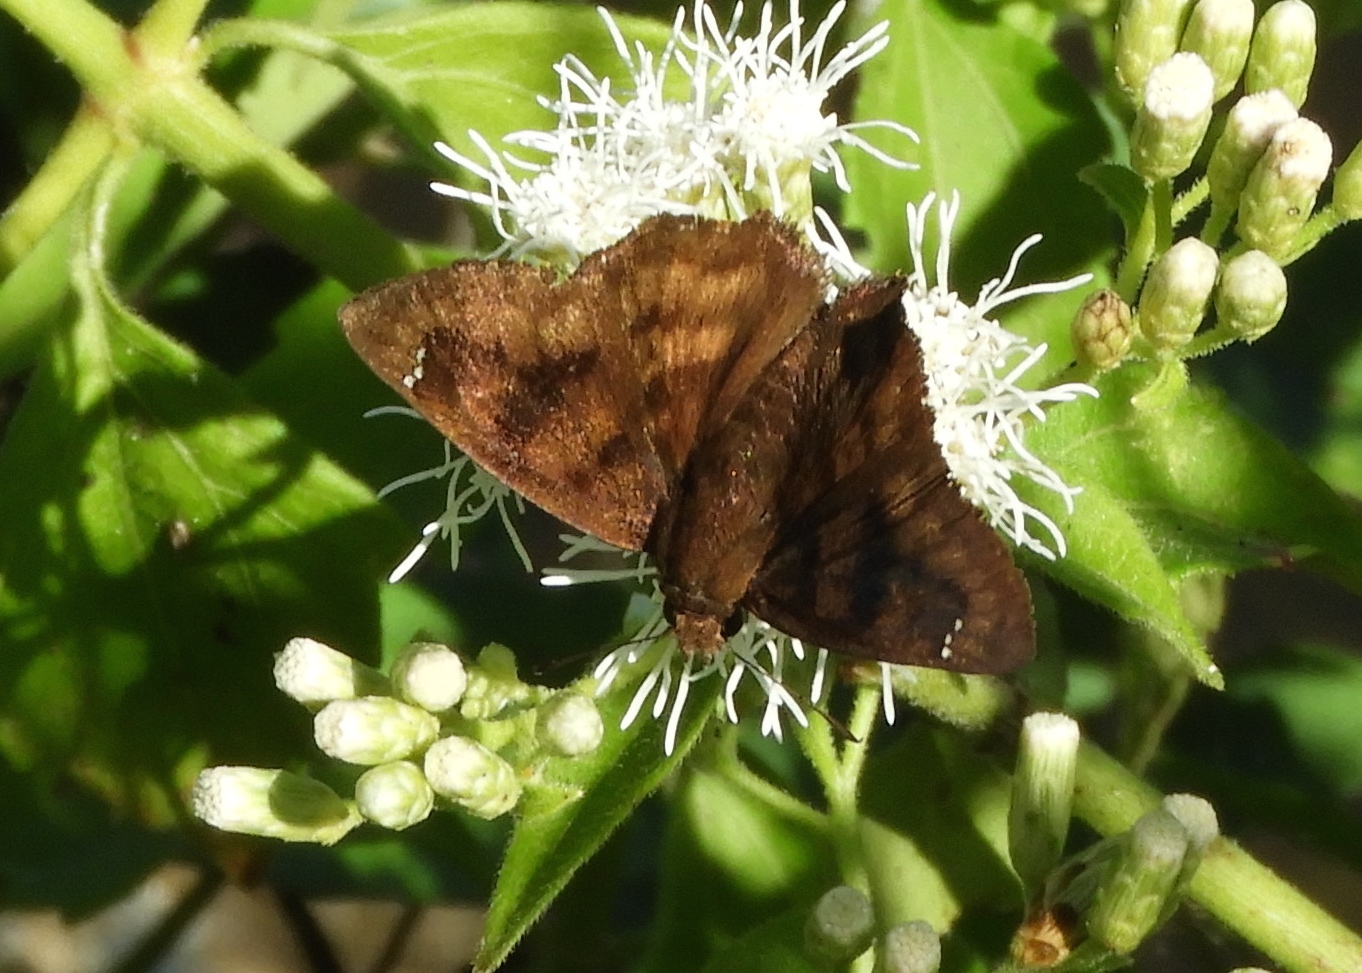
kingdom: Animalia
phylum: Arthropoda
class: Insecta
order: Lepidoptera
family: Hesperiidae
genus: Nisoniades
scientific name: Nisoniades rubescens
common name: Purplish-black skipper
